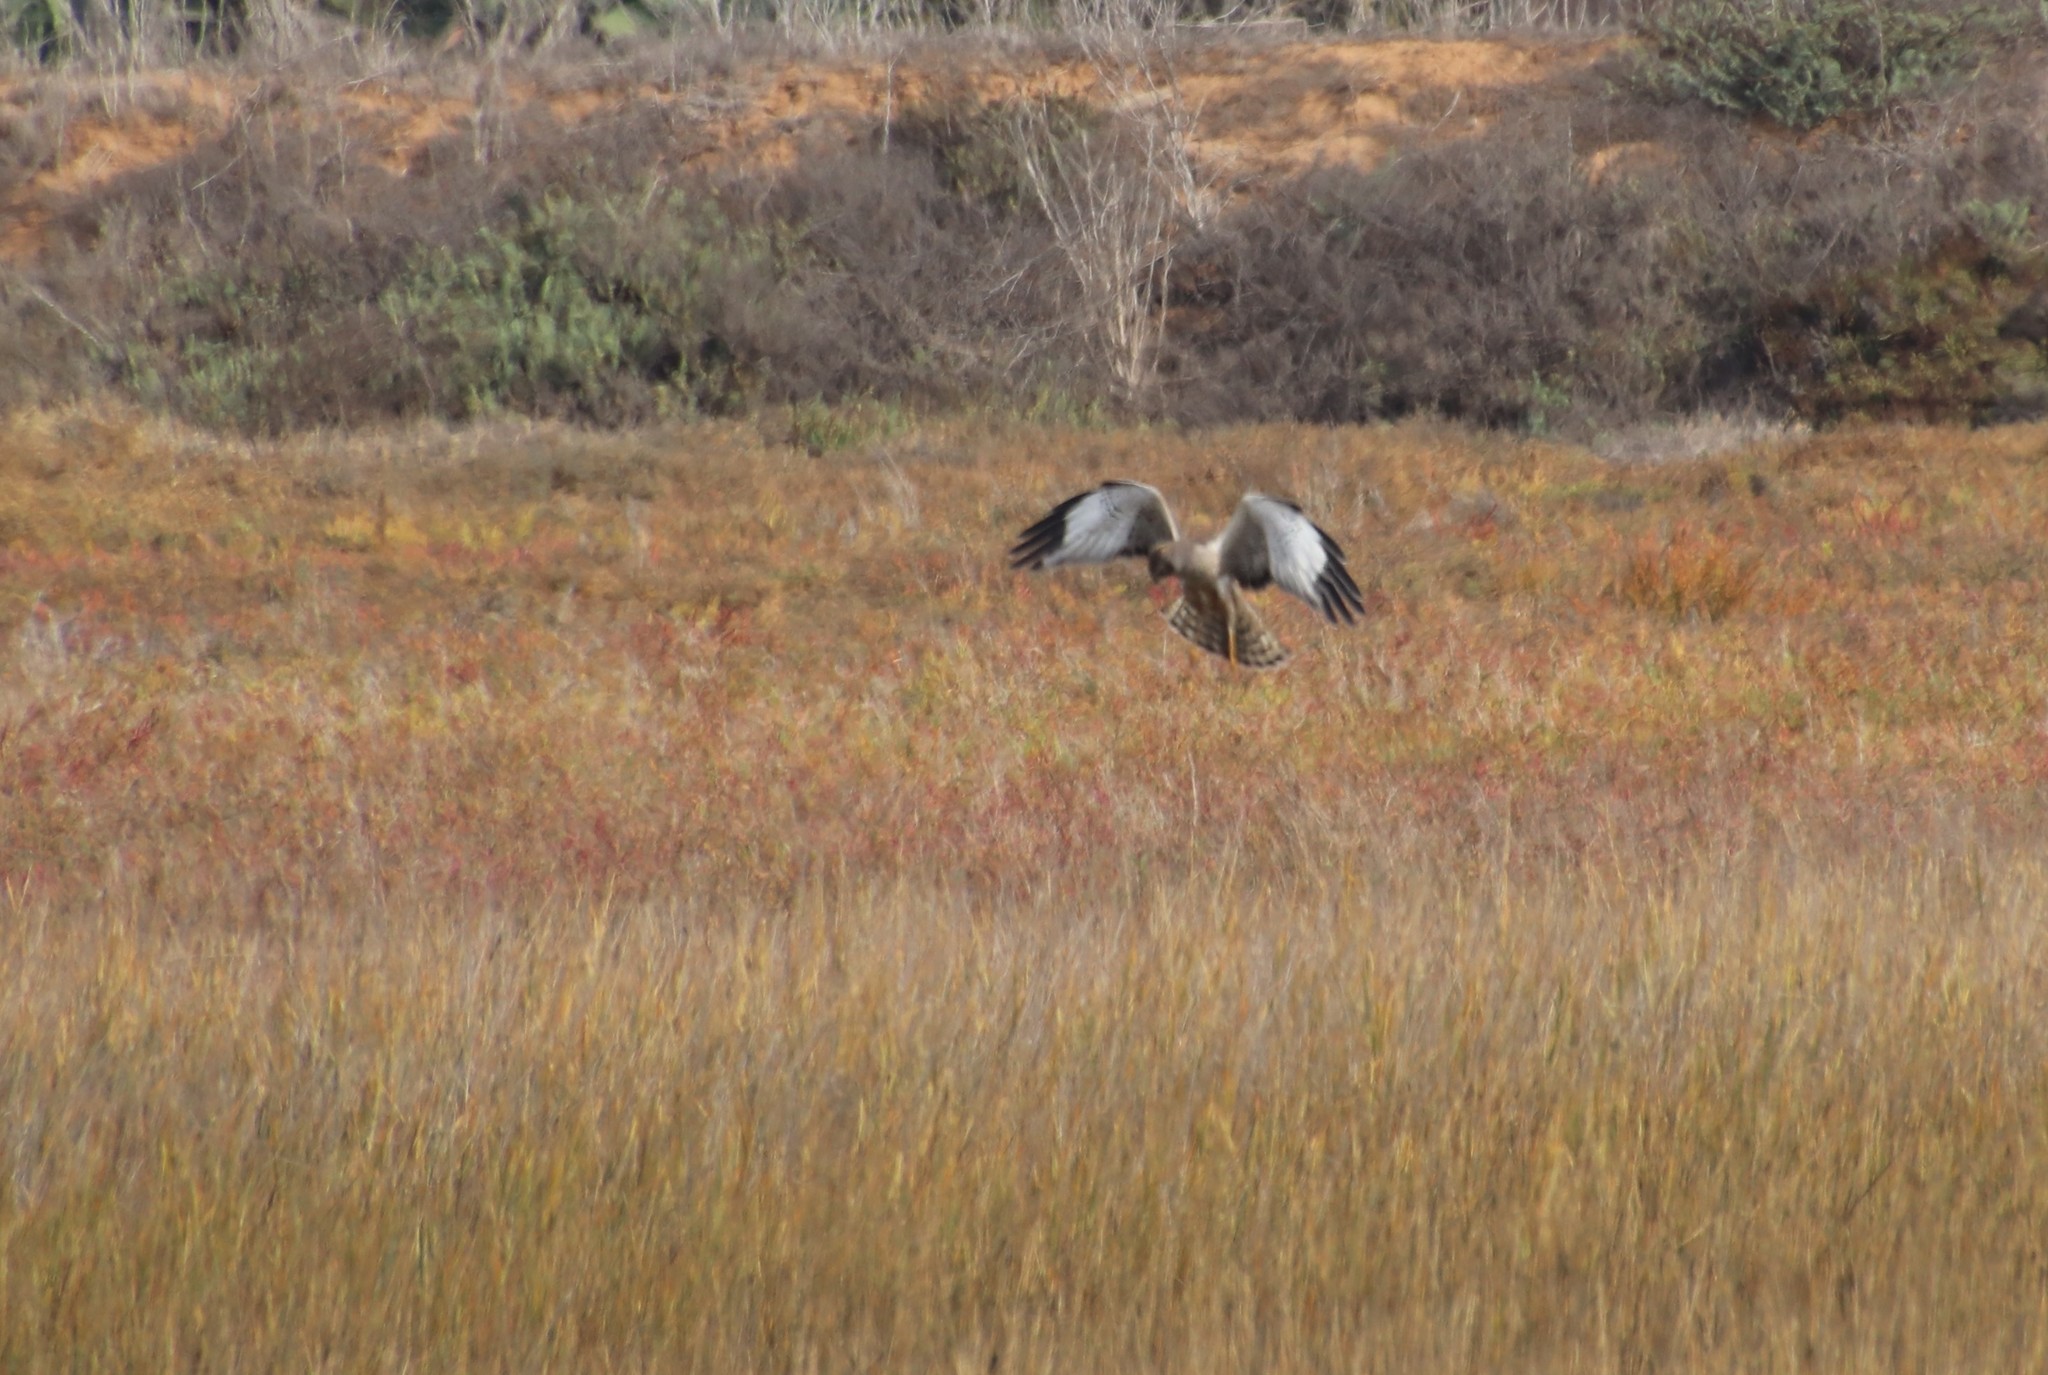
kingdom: Animalia
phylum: Chordata
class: Aves
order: Accipitriformes
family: Accipitridae
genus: Circus
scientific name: Circus cyaneus
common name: Hen harrier
